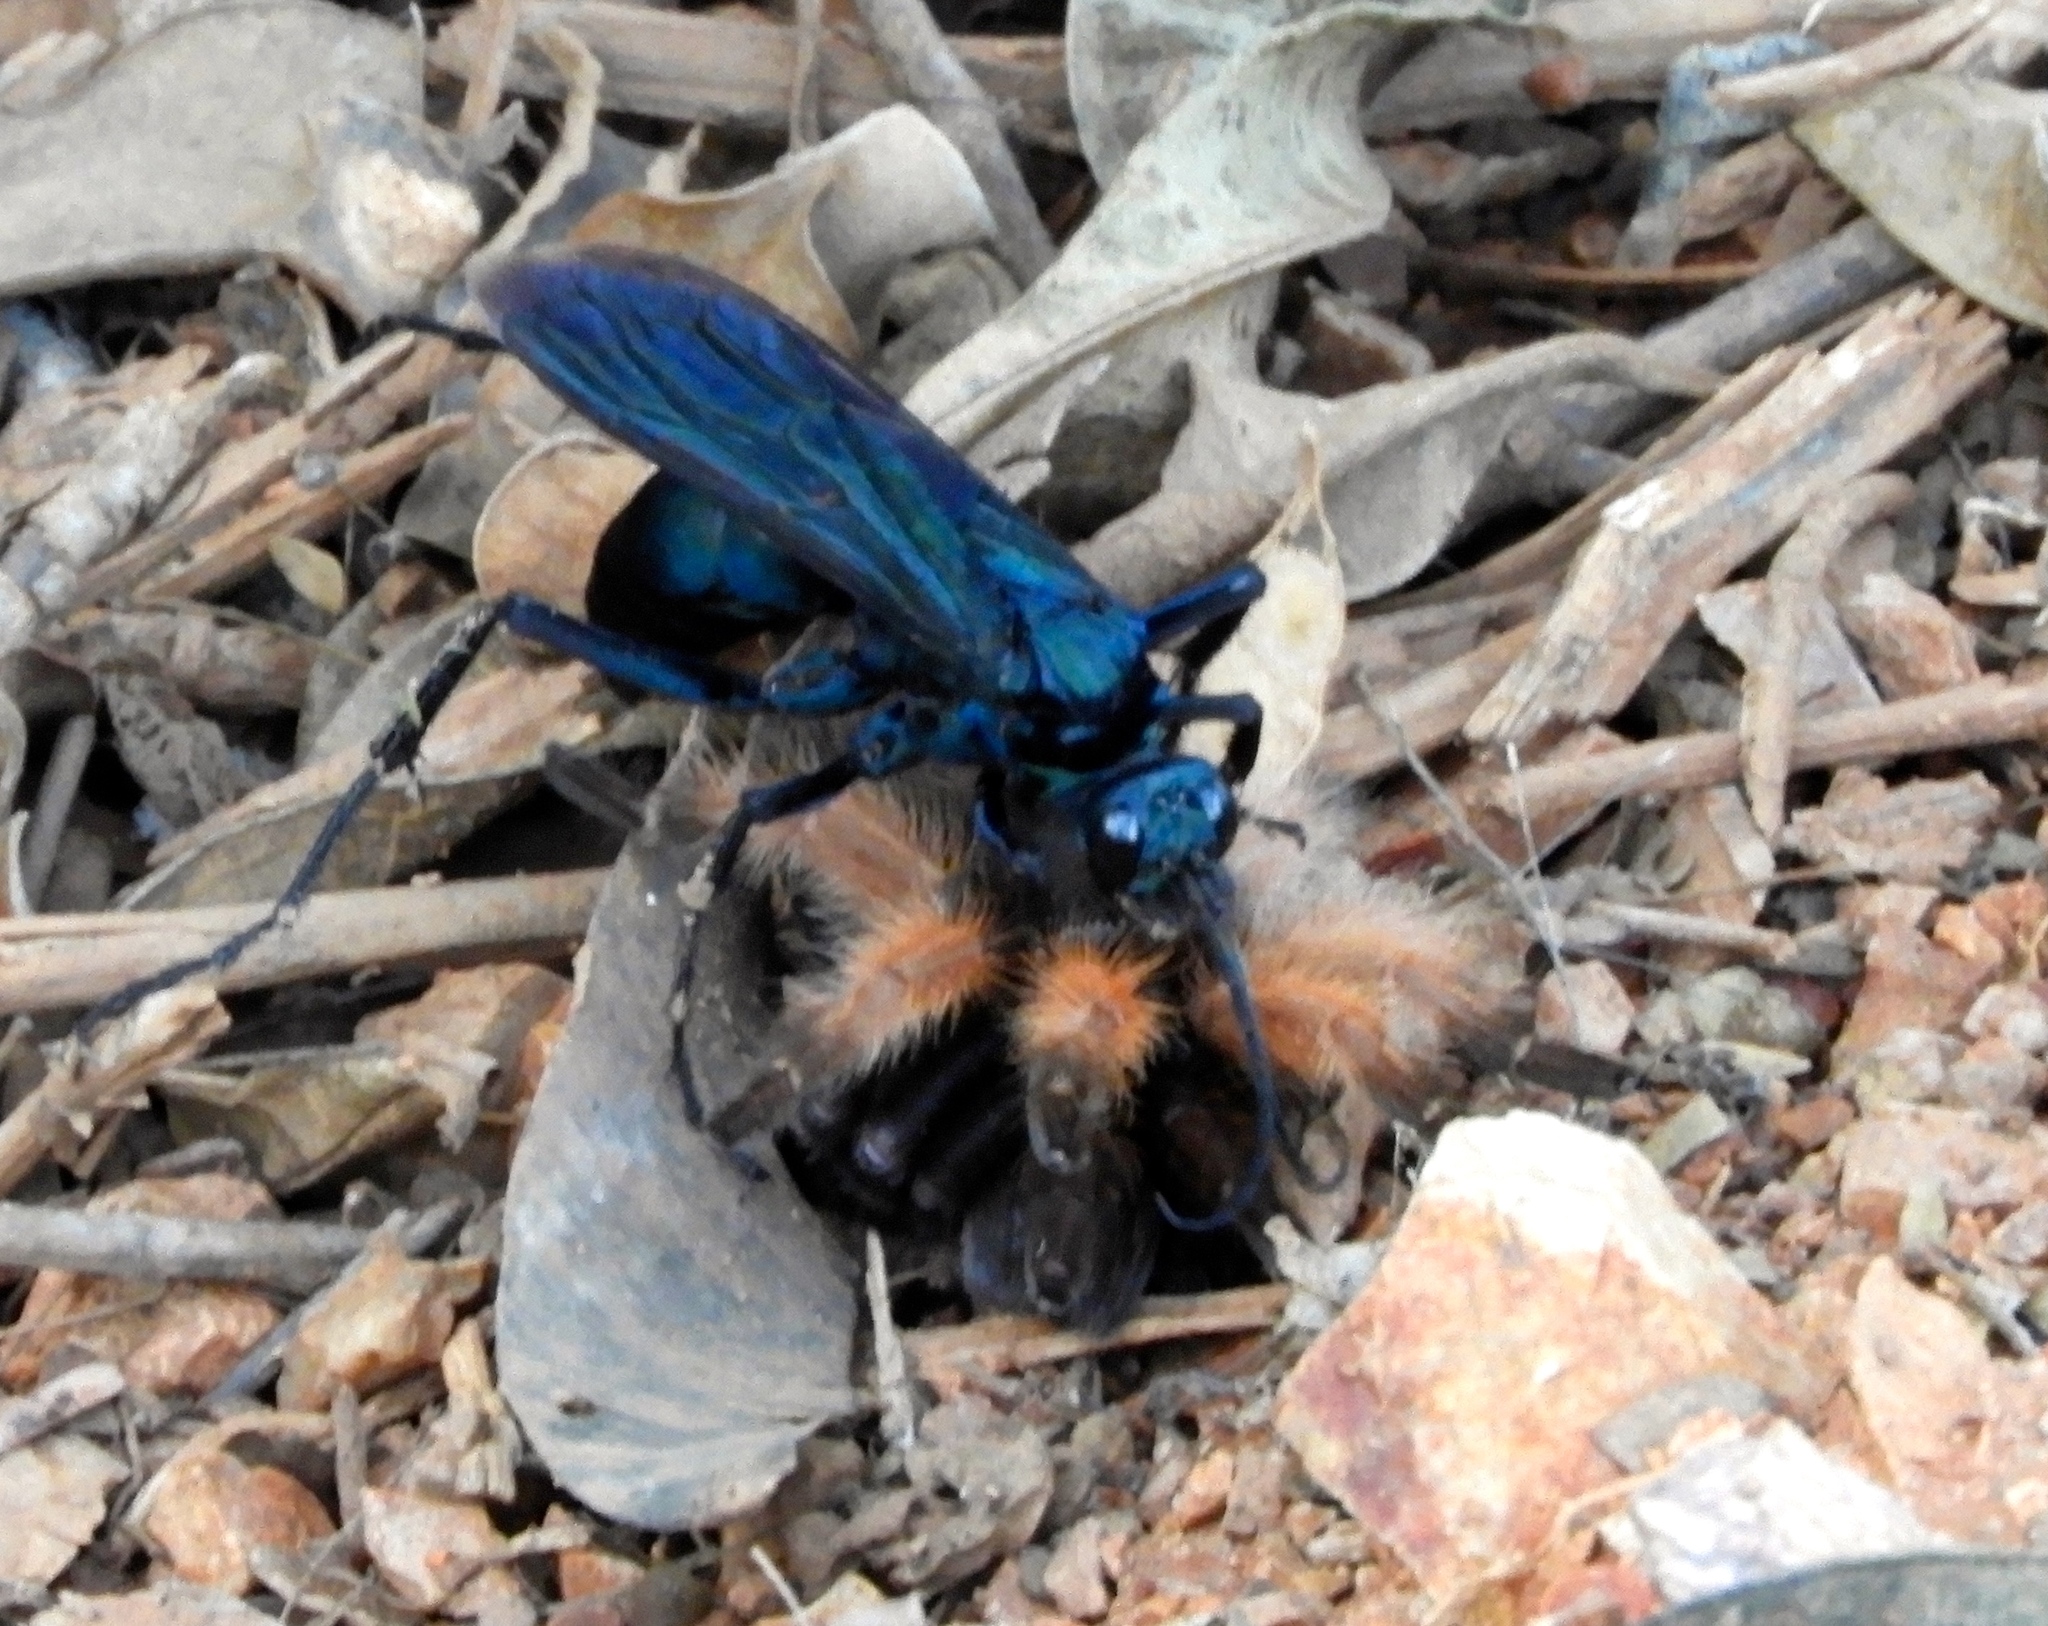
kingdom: Animalia
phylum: Arthropoda
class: Insecta
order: Hymenoptera
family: Pompilidae
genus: Pepsis
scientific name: Pepsis mexicana
